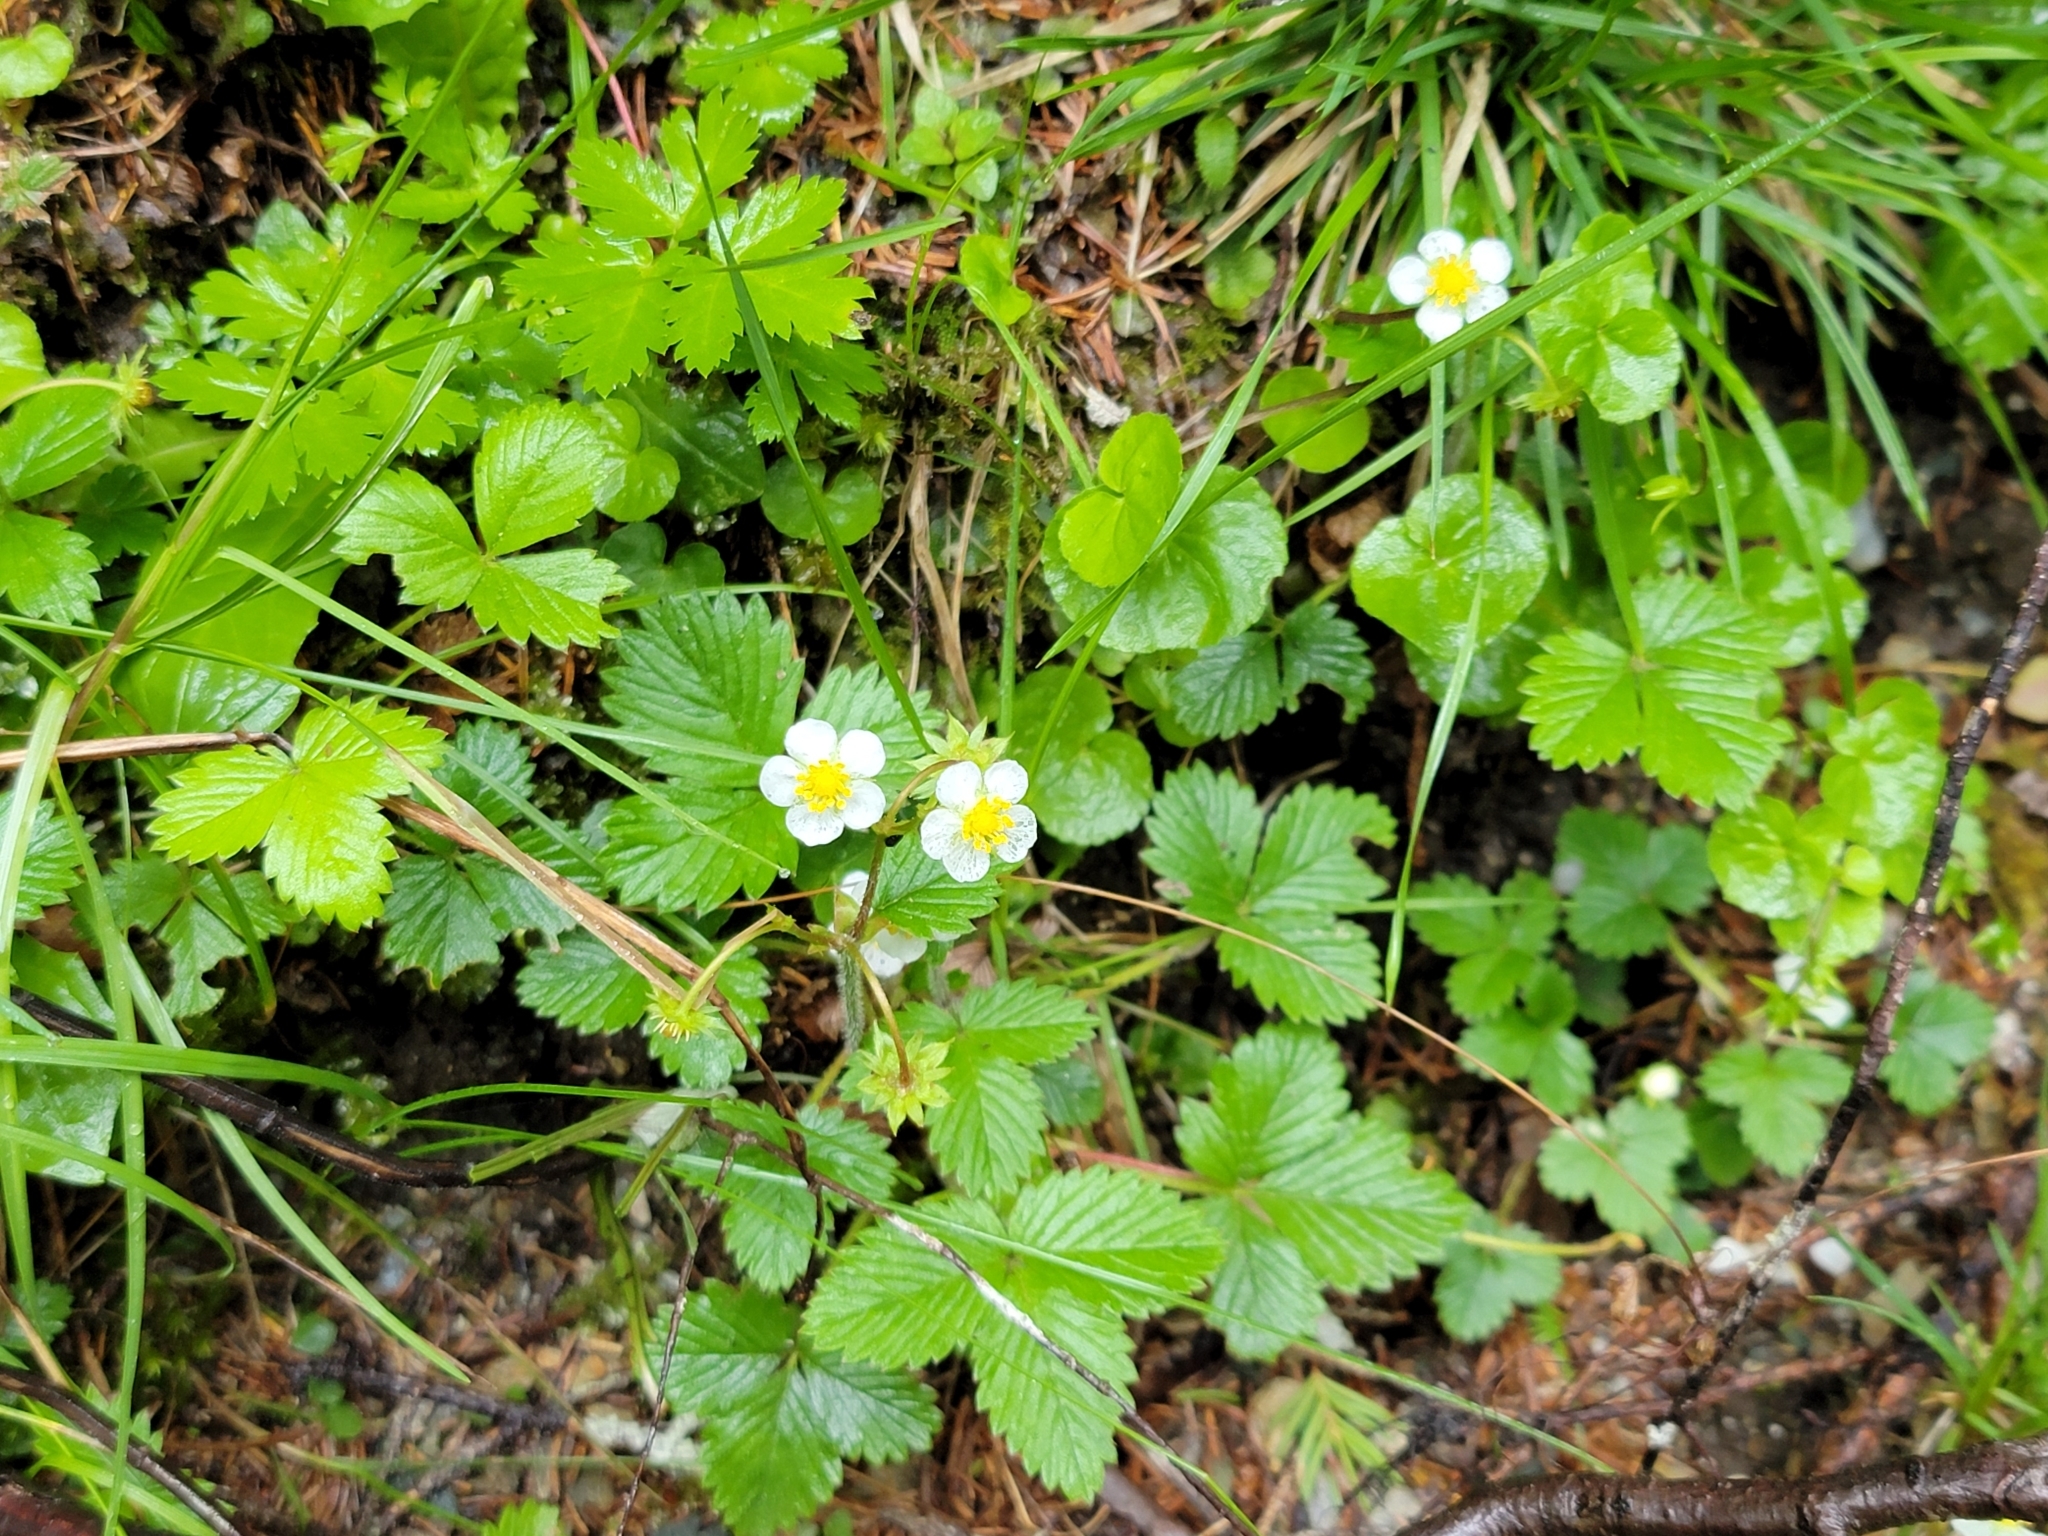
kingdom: Plantae
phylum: Tracheophyta
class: Magnoliopsida
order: Rosales
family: Rosaceae
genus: Fragaria
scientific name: Fragaria vesca
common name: Wild strawberry
